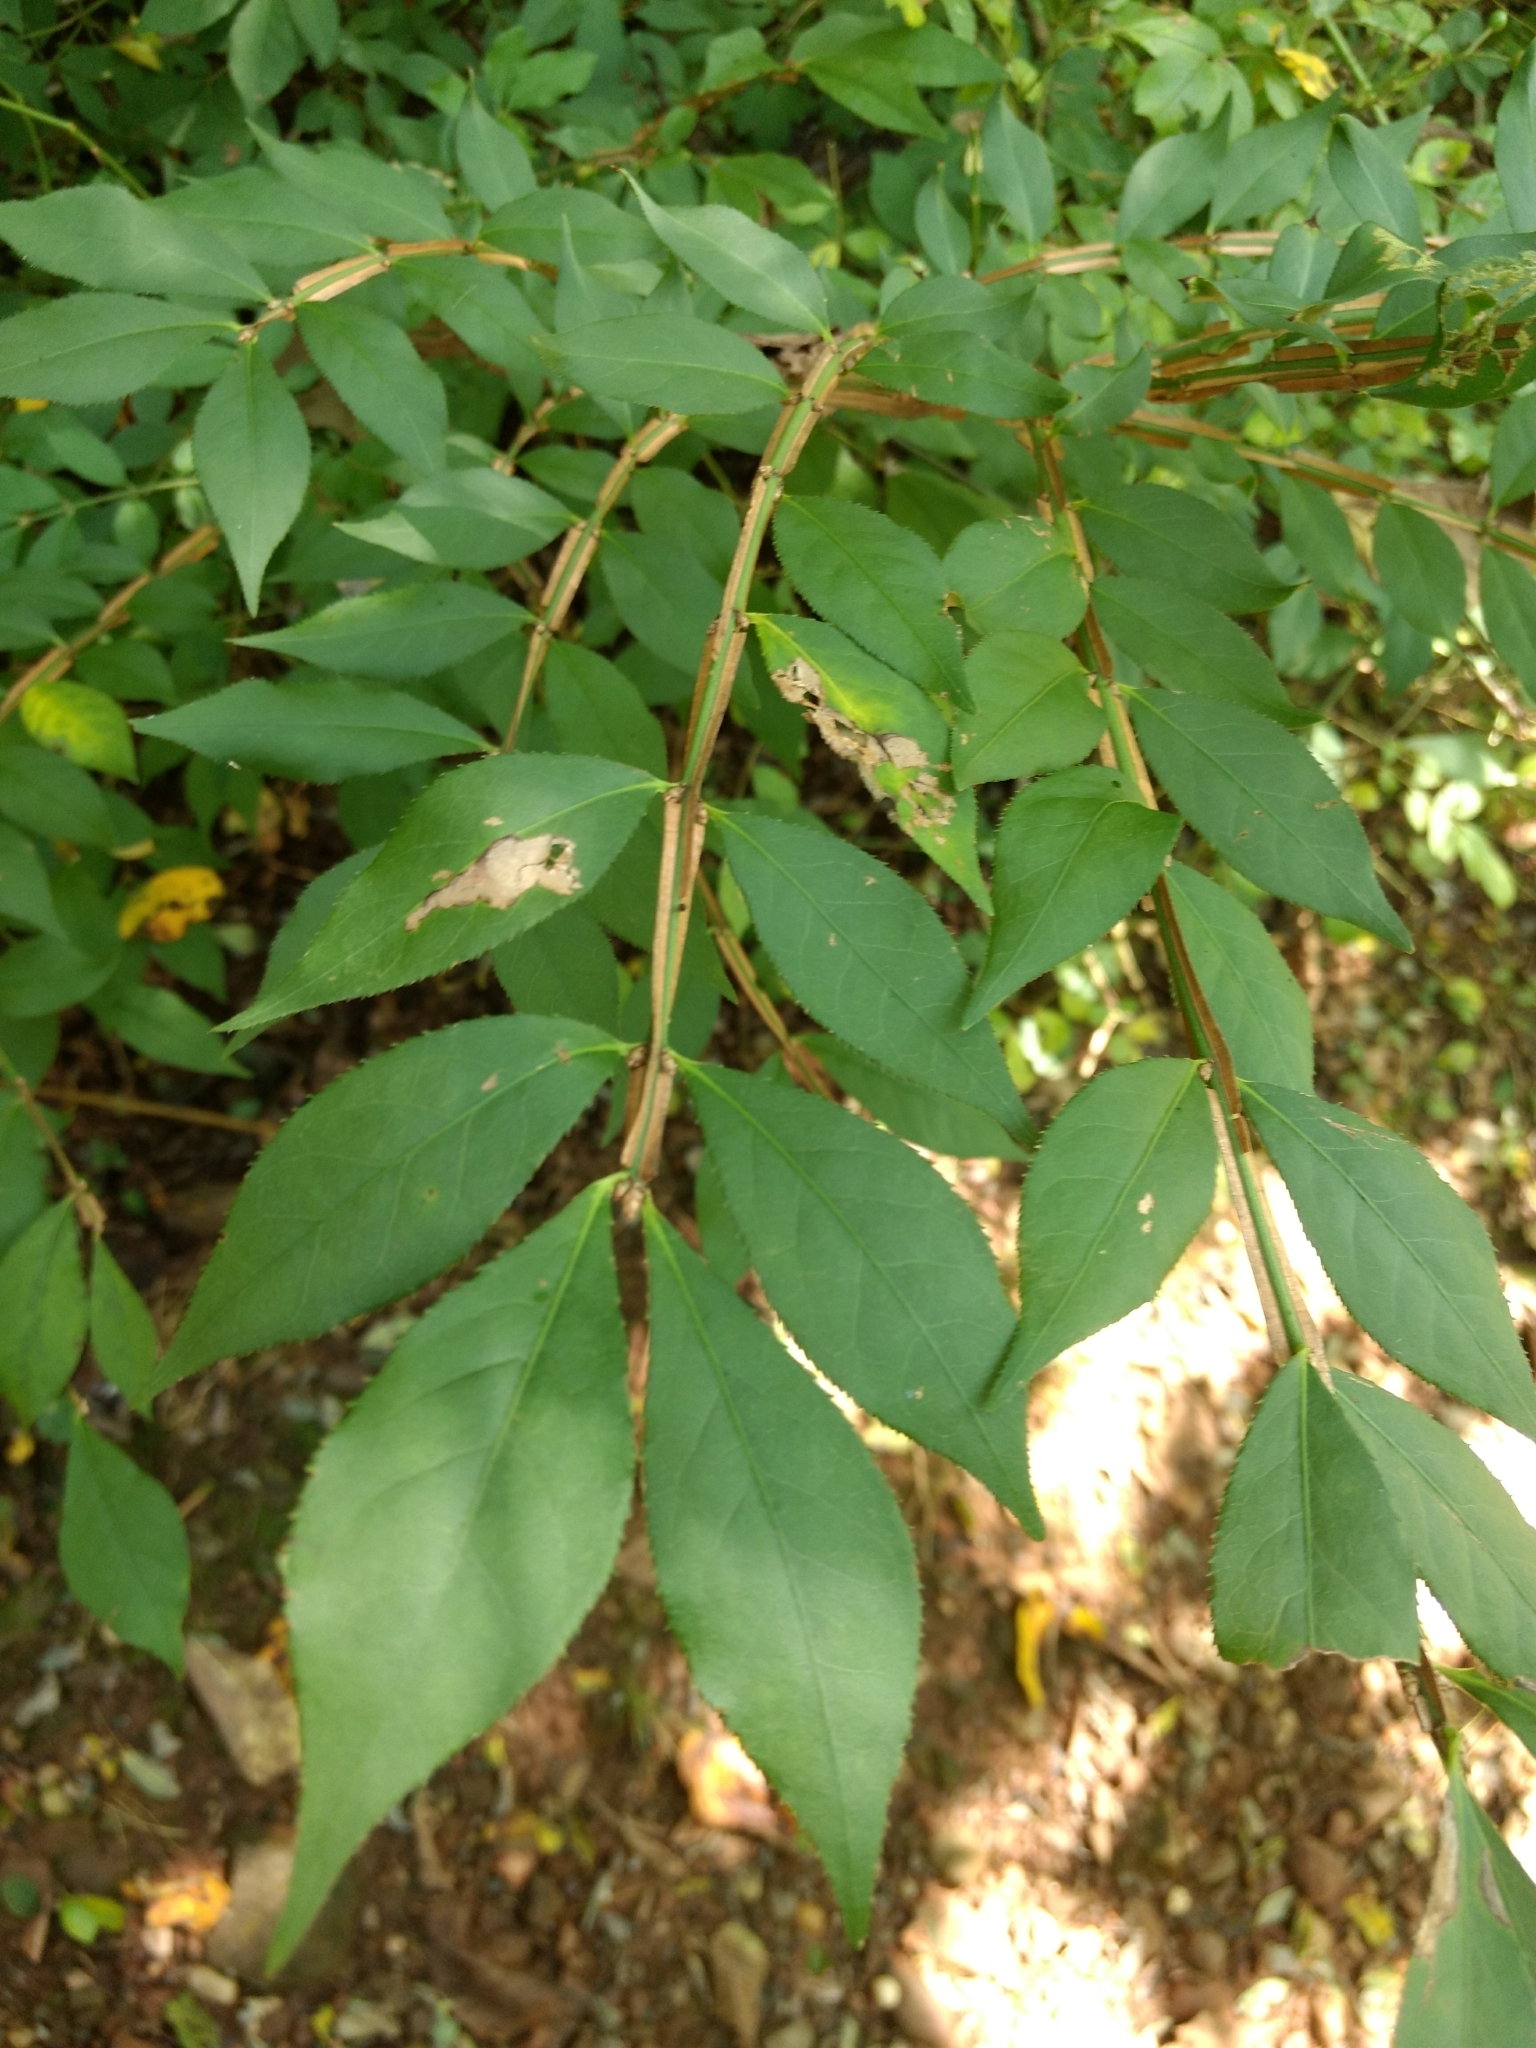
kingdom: Plantae
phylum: Tracheophyta
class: Magnoliopsida
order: Celastrales
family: Celastraceae
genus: Euonymus
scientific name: Euonymus alatus
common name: Winged euonymus
